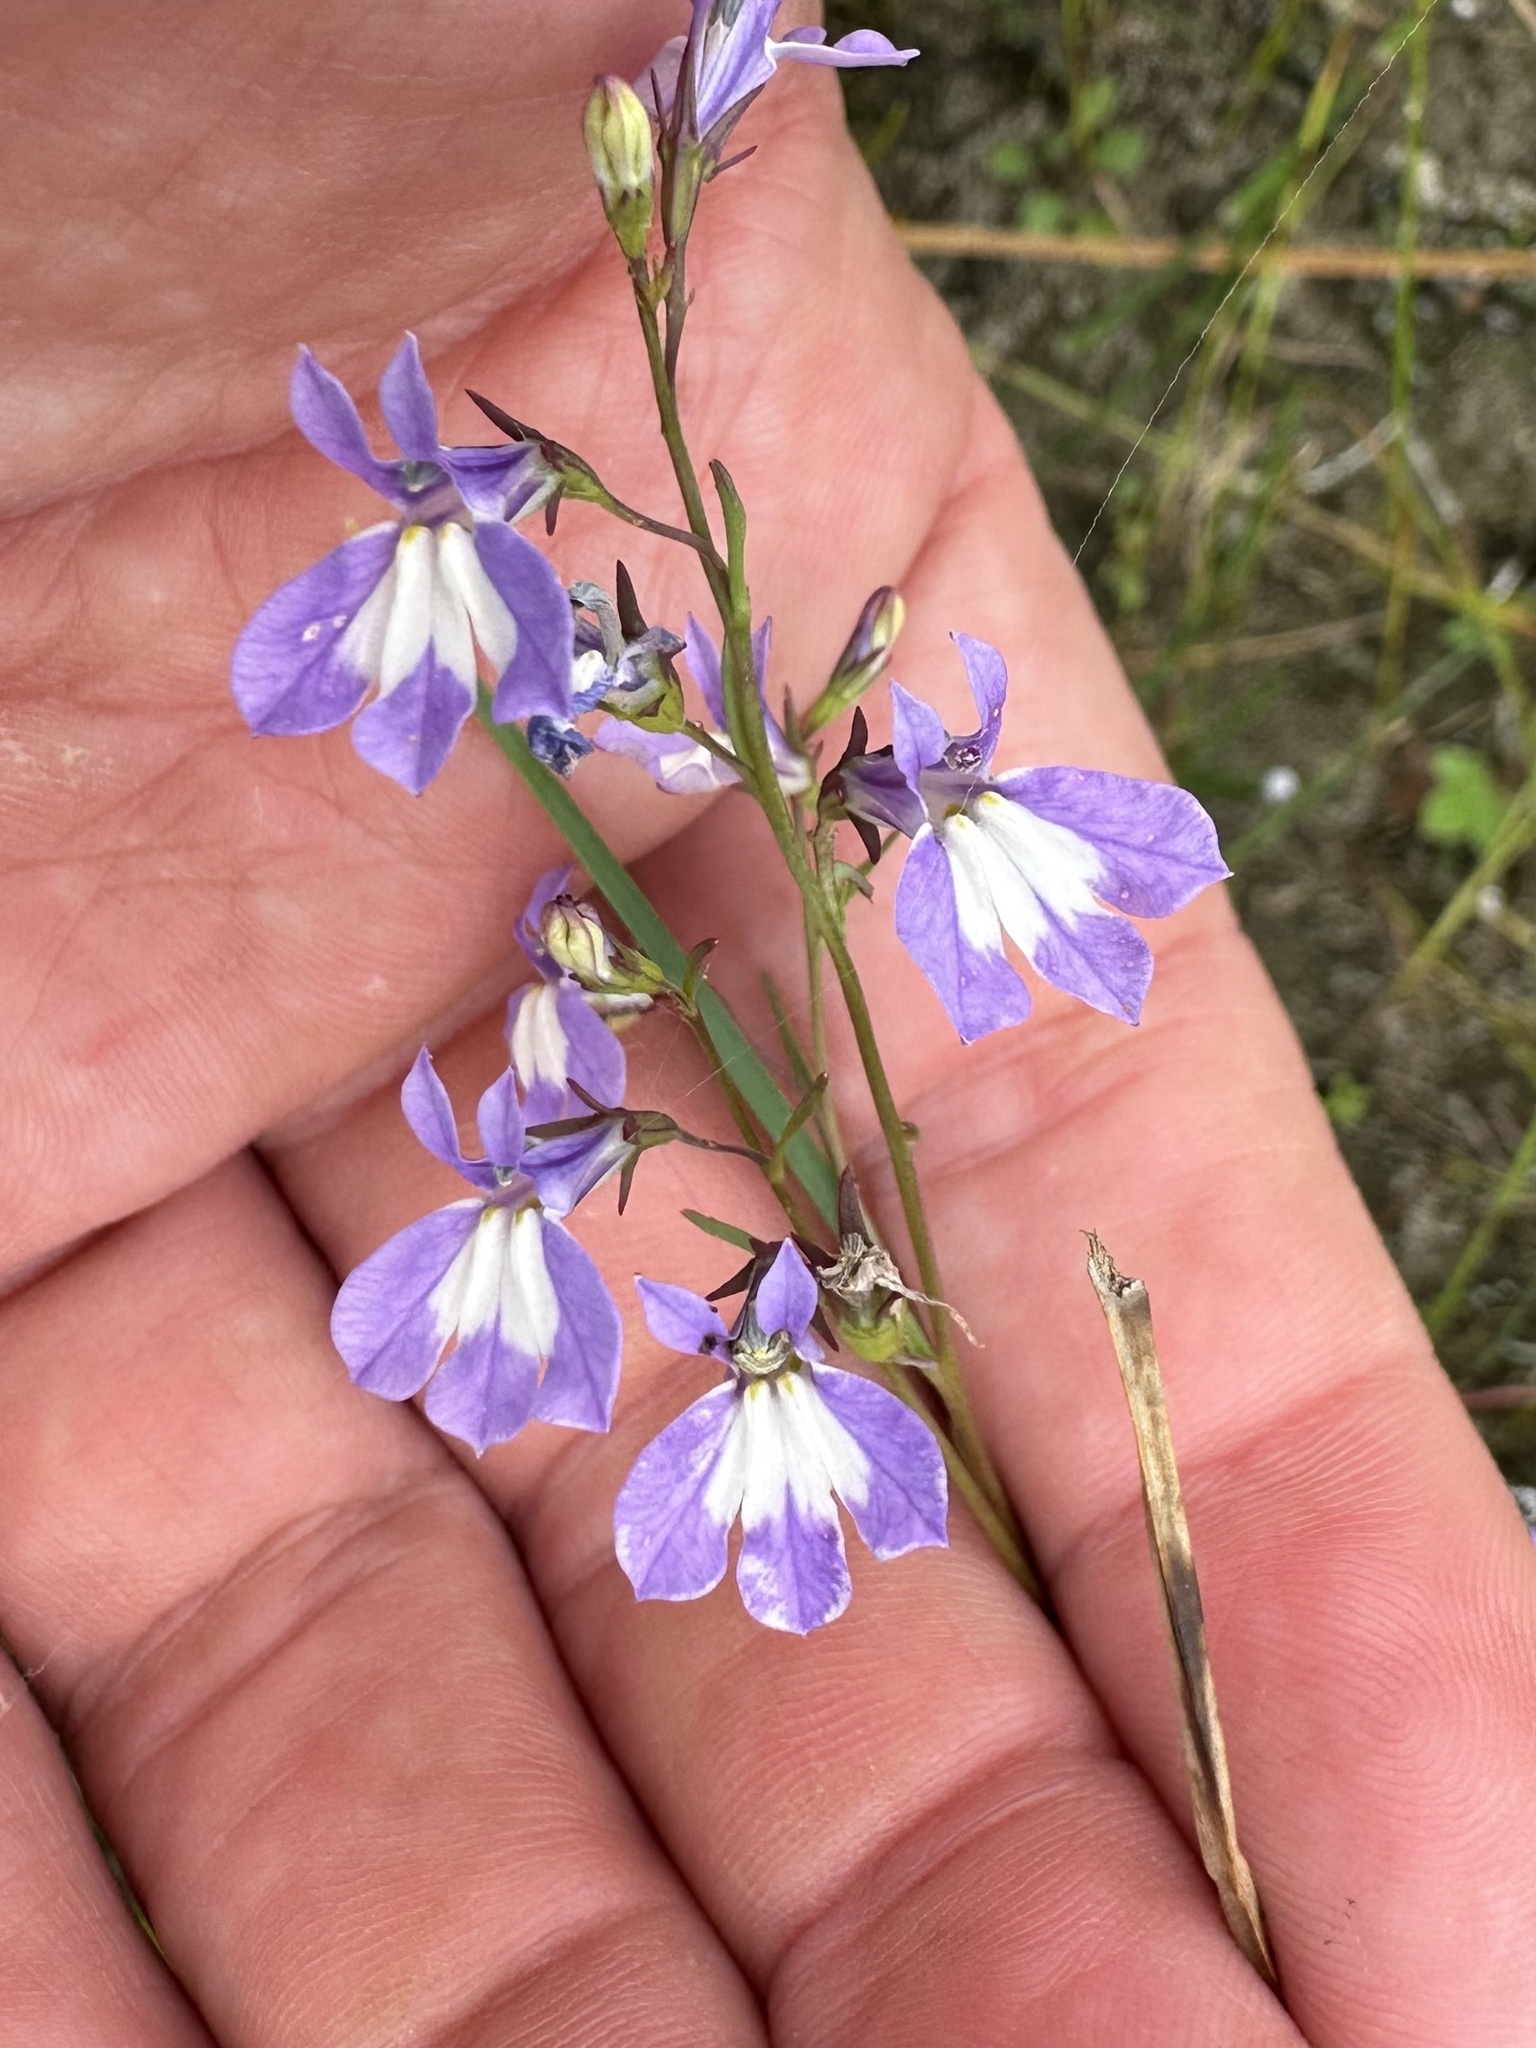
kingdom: Plantae
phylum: Tracheophyta
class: Magnoliopsida
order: Asterales
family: Campanulaceae
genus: Lobelia
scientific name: Lobelia kalmii
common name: Kalm's lobelia
